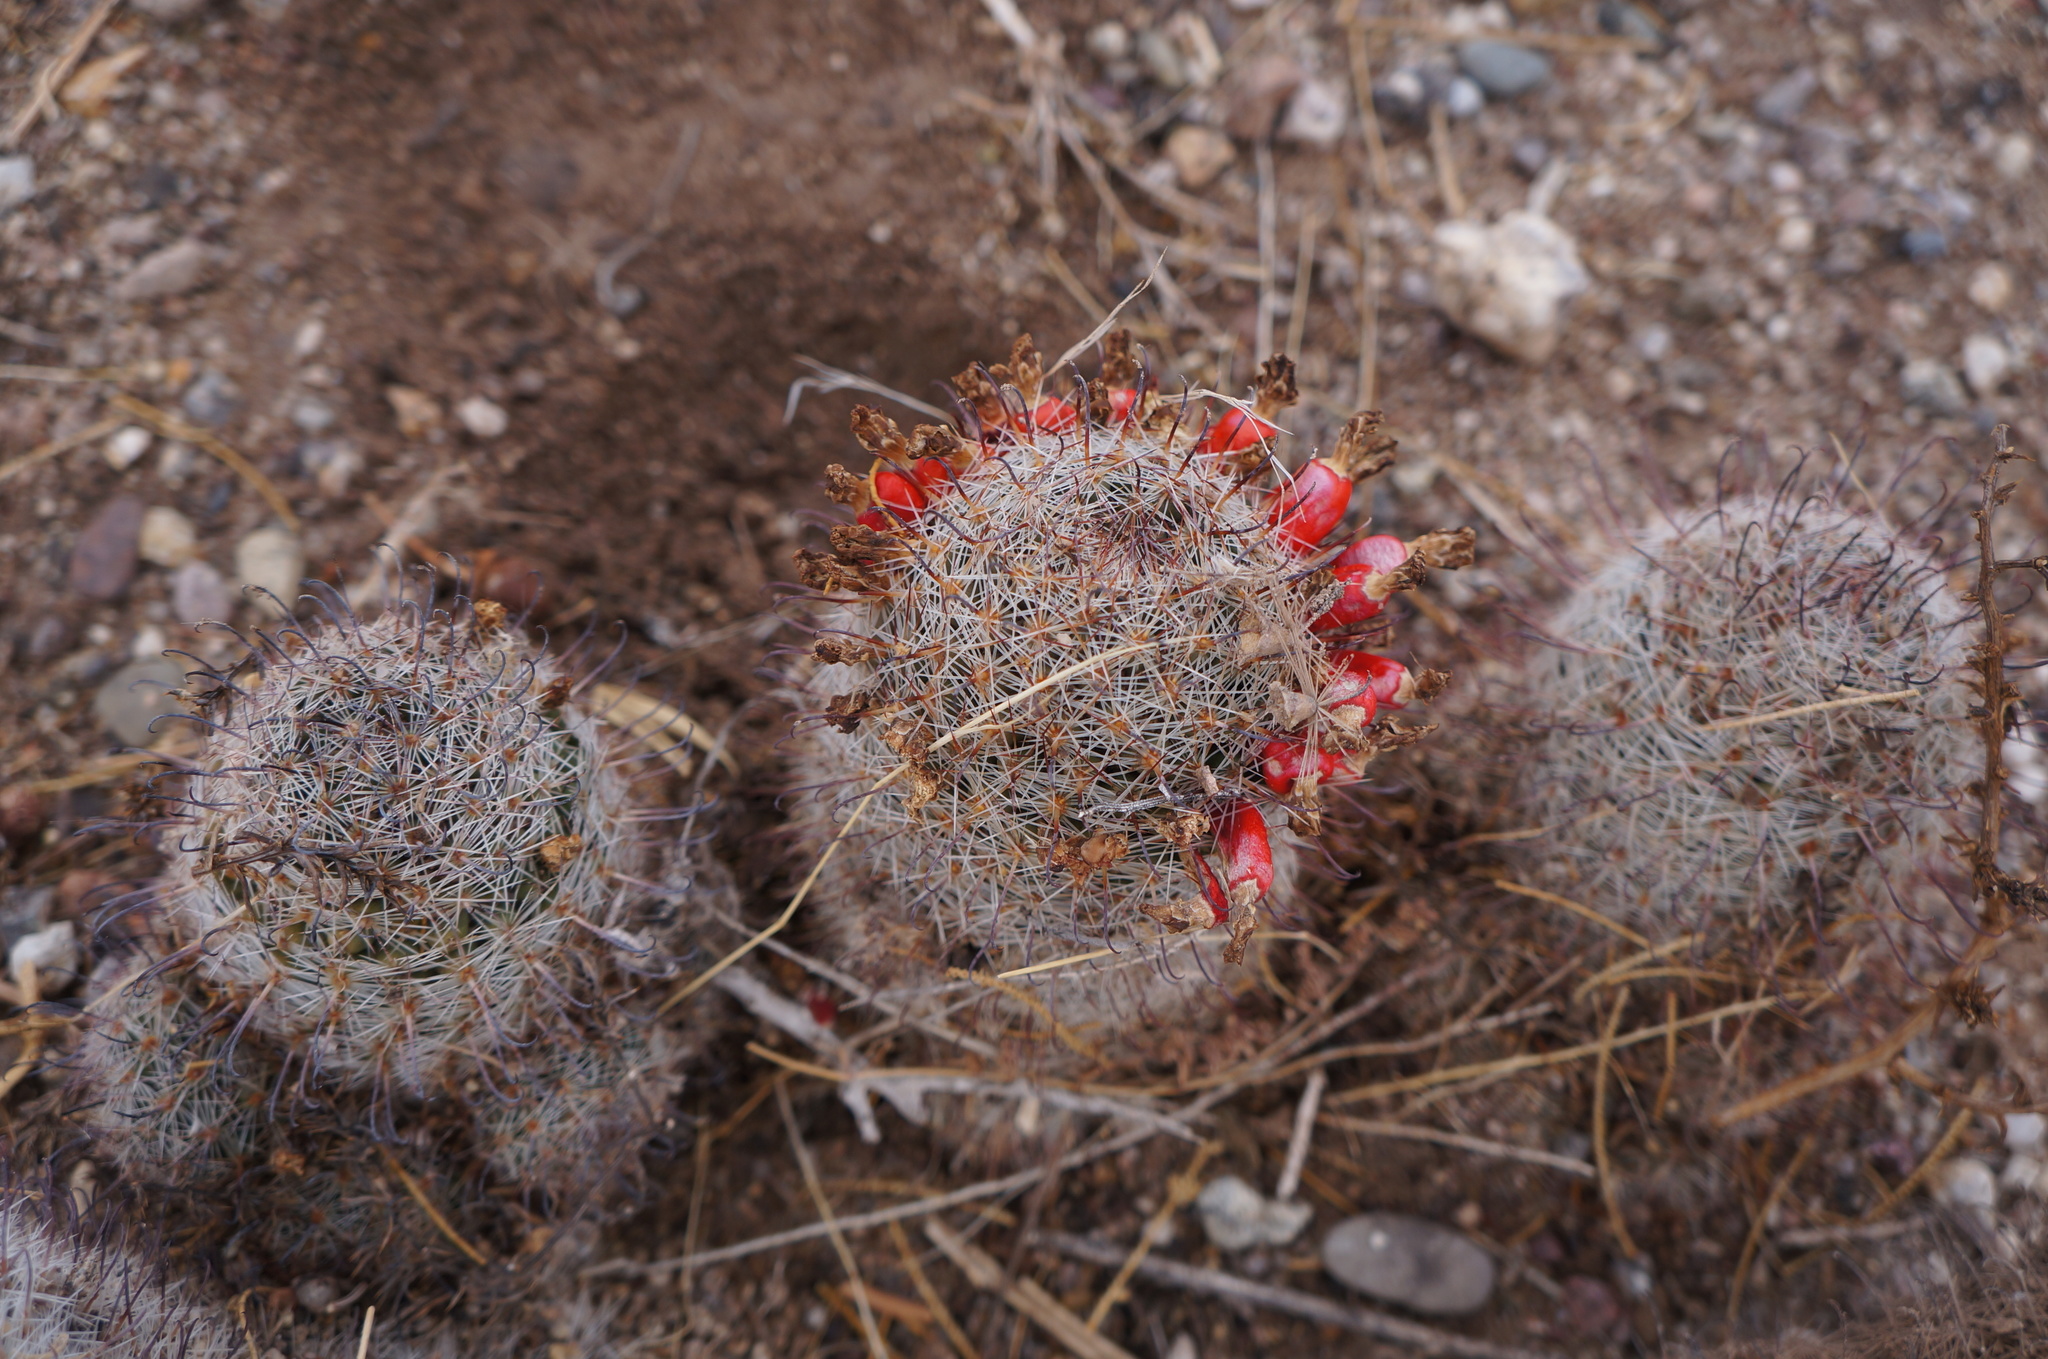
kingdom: Plantae
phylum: Tracheophyta
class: Magnoliopsida
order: Caryophyllales
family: Cactaceae
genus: Cochemiea
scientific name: Cochemiea grahamii
